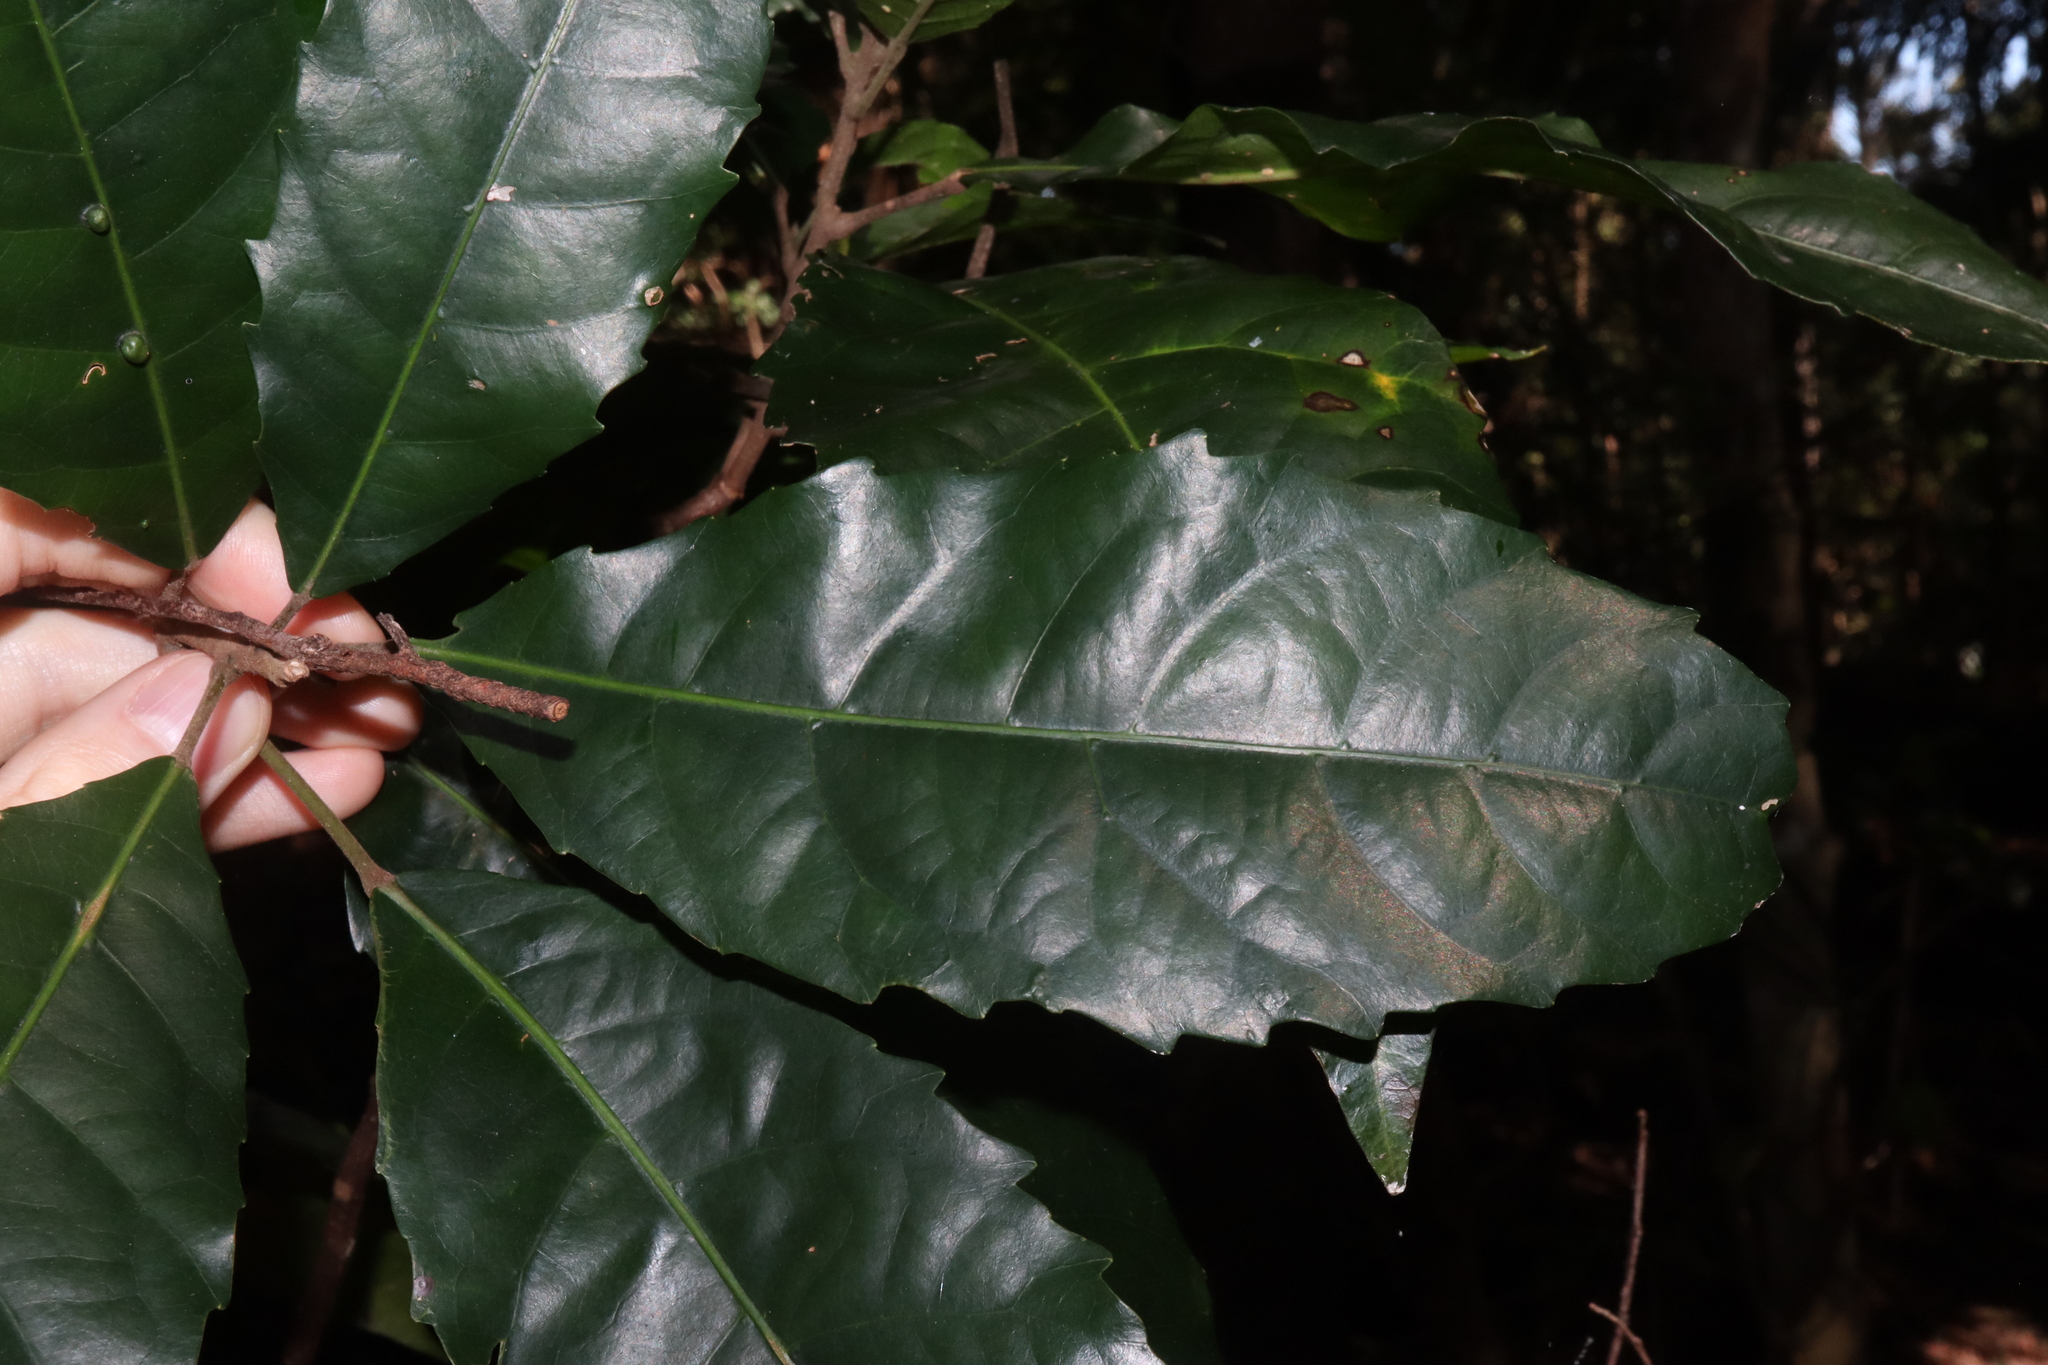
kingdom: Plantae
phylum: Tracheophyta
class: Magnoliopsida
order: Oxalidales
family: Elaeocarpaceae
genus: Sloanea
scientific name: Sloanea woollsii
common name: Yellow carabeen
